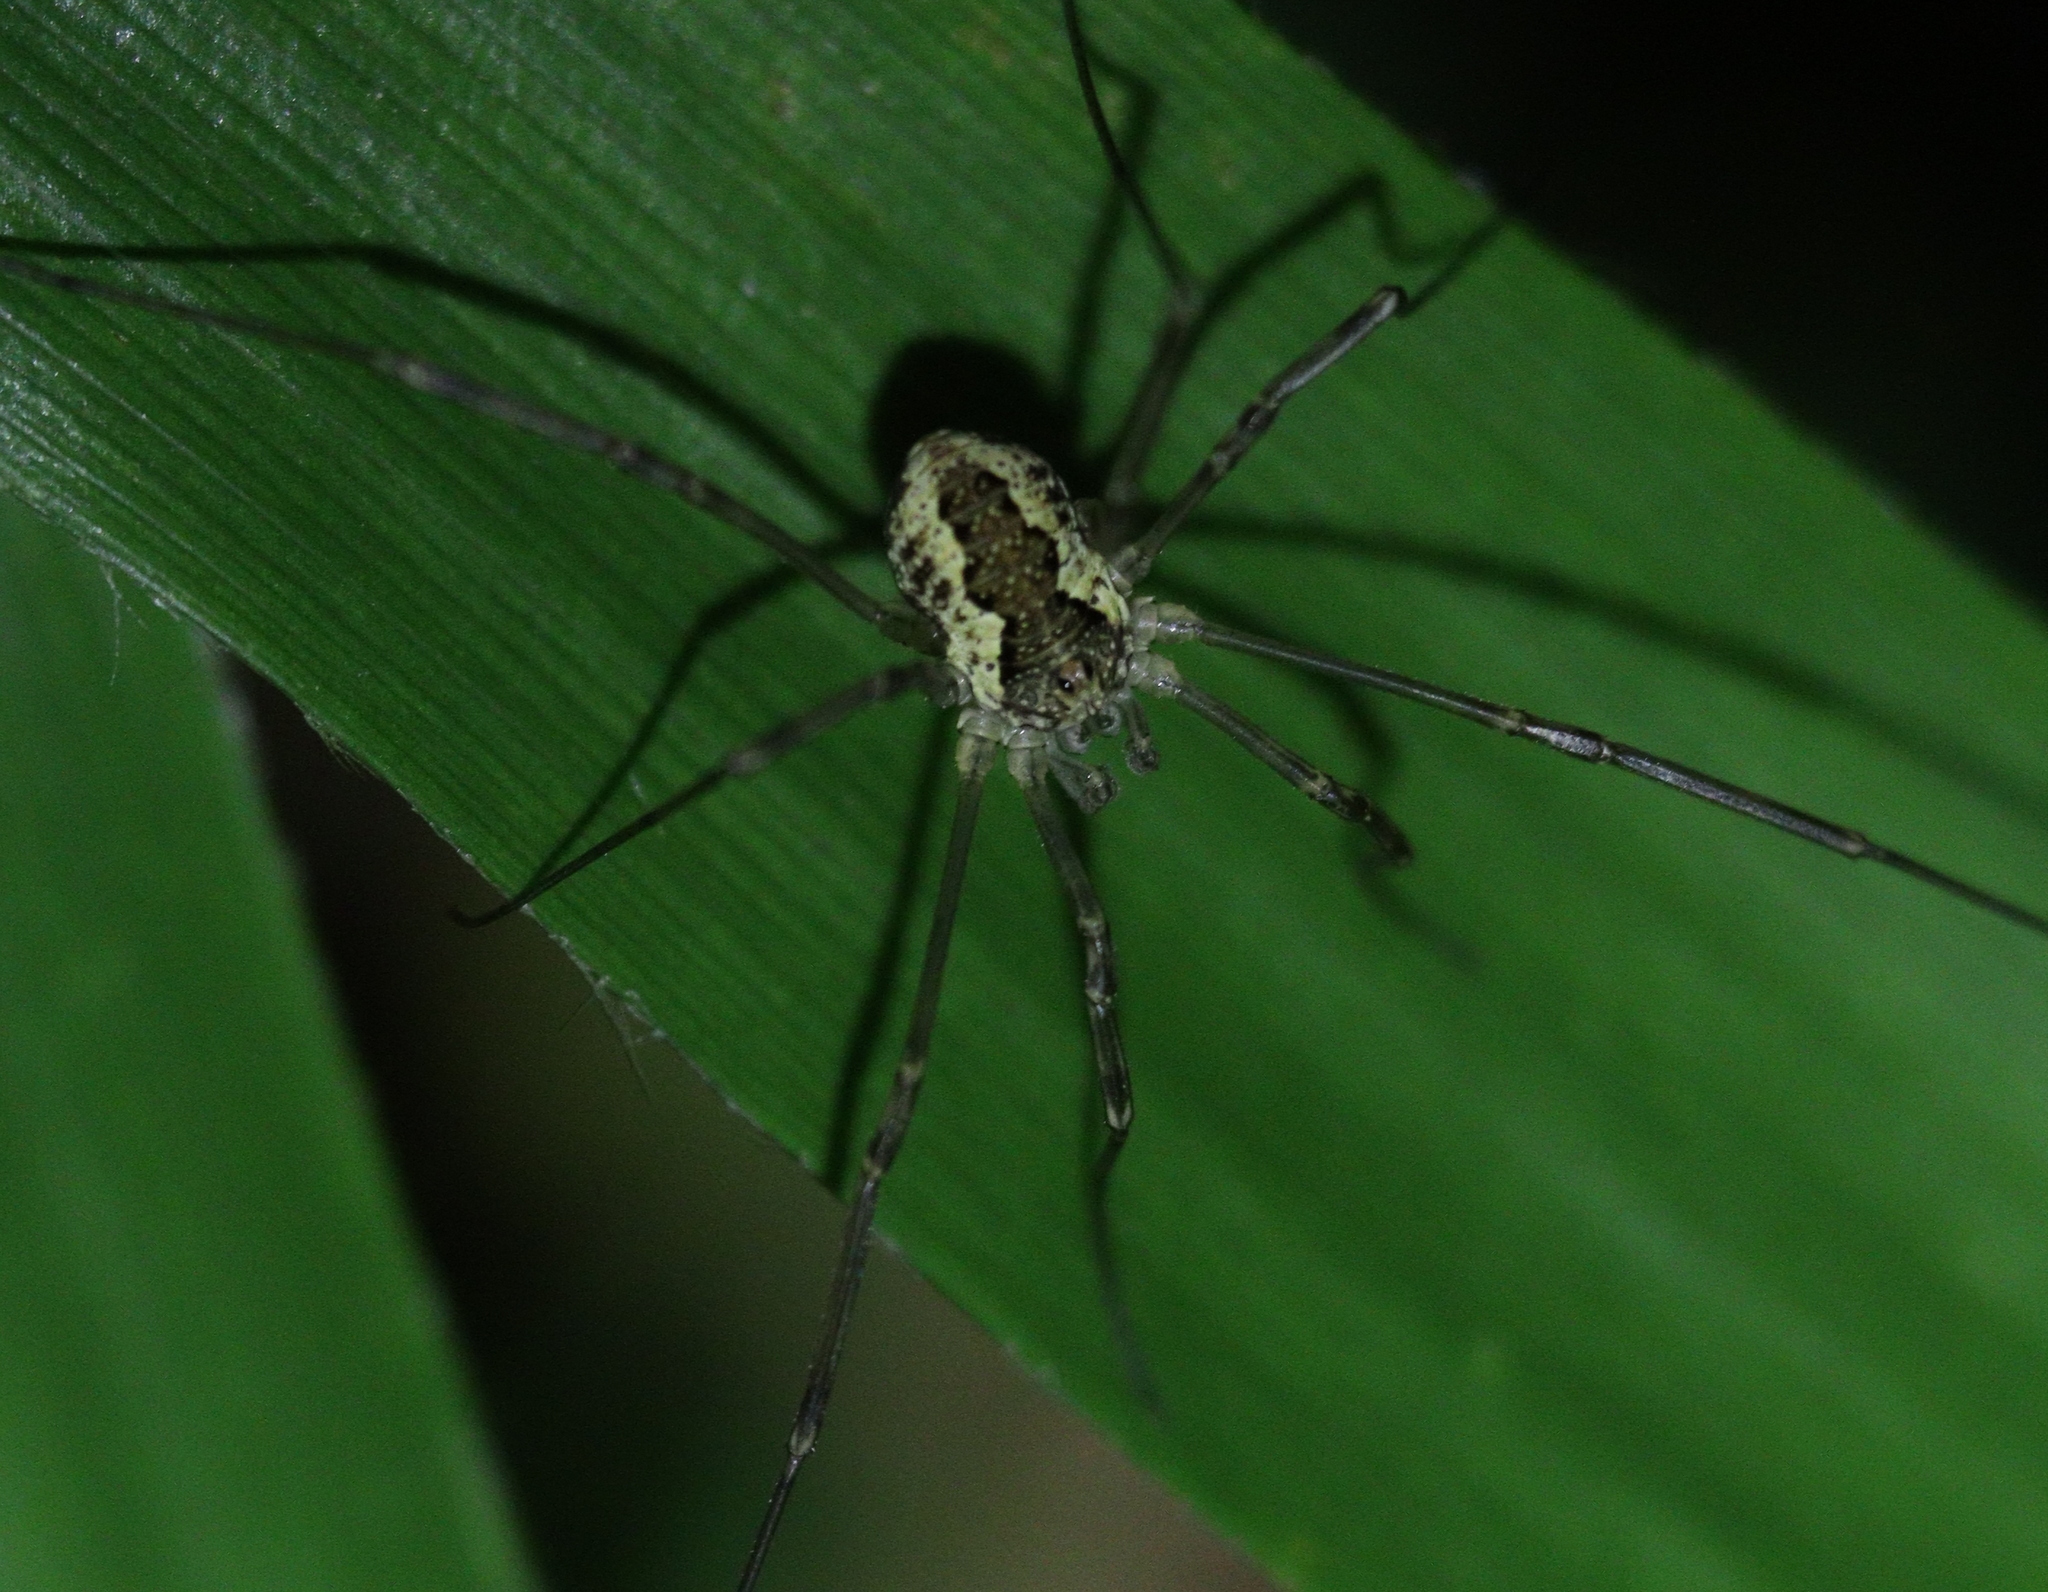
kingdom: Animalia
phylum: Arthropoda
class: Arachnida
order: Opiliones
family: Phalangiidae
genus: Mitopus
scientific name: Mitopus morio
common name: Saddleback harvestman
